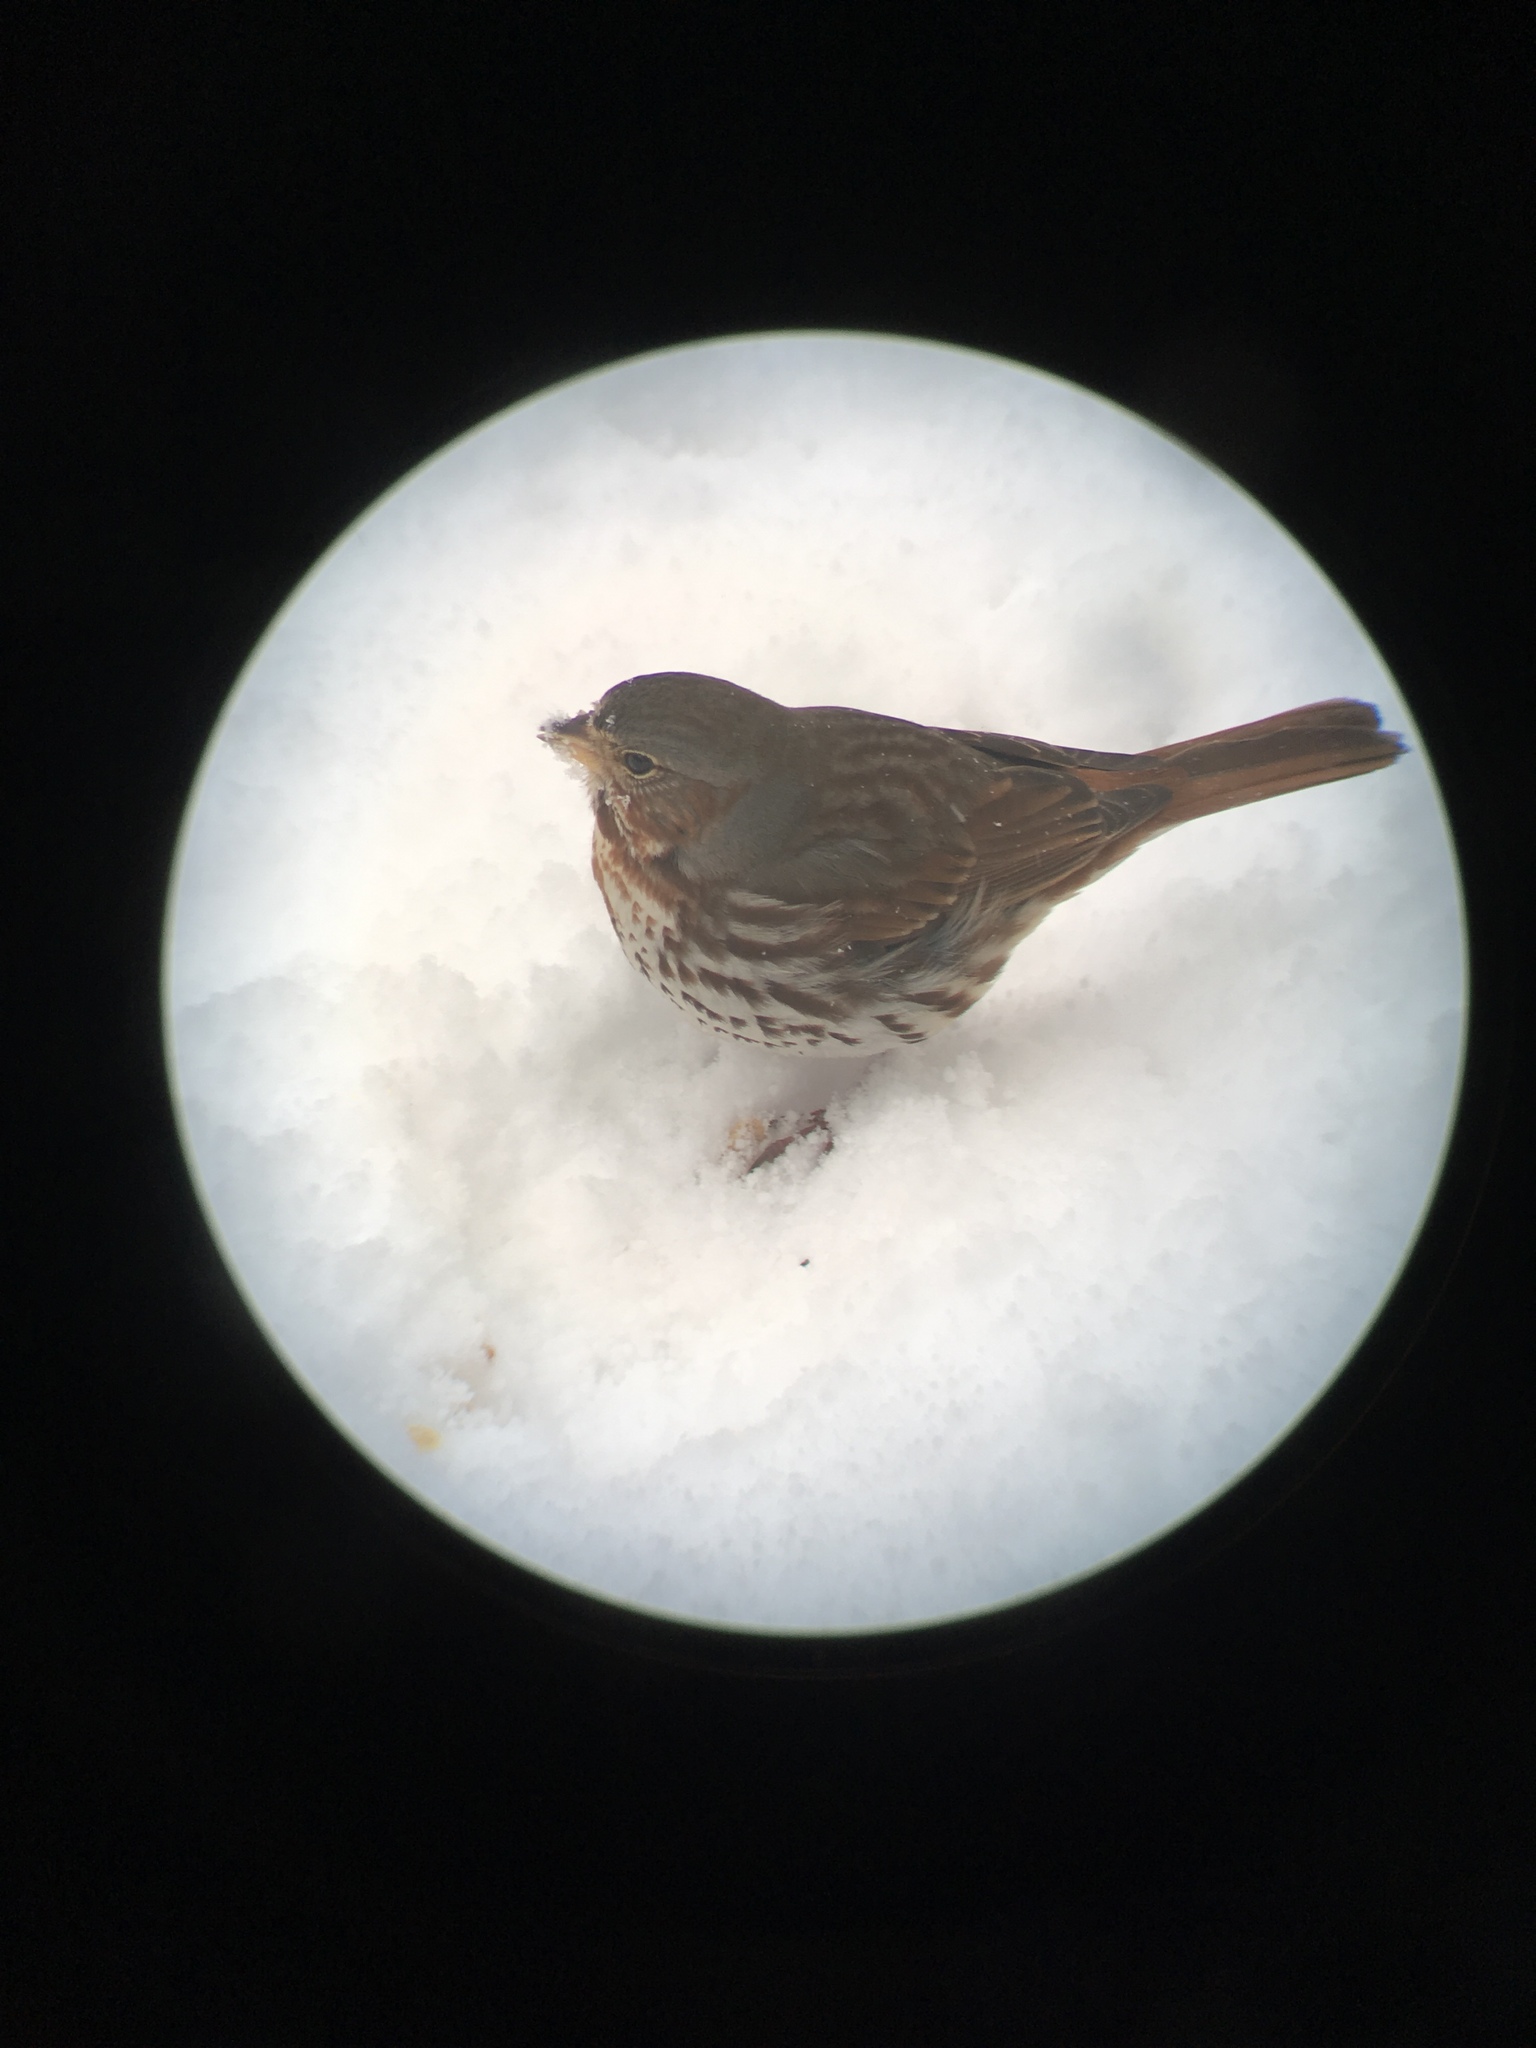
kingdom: Animalia
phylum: Chordata
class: Aves
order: Passeriformes
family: Passerellidae
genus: Passerella
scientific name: Passerella iliaca
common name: Fox sparrow
